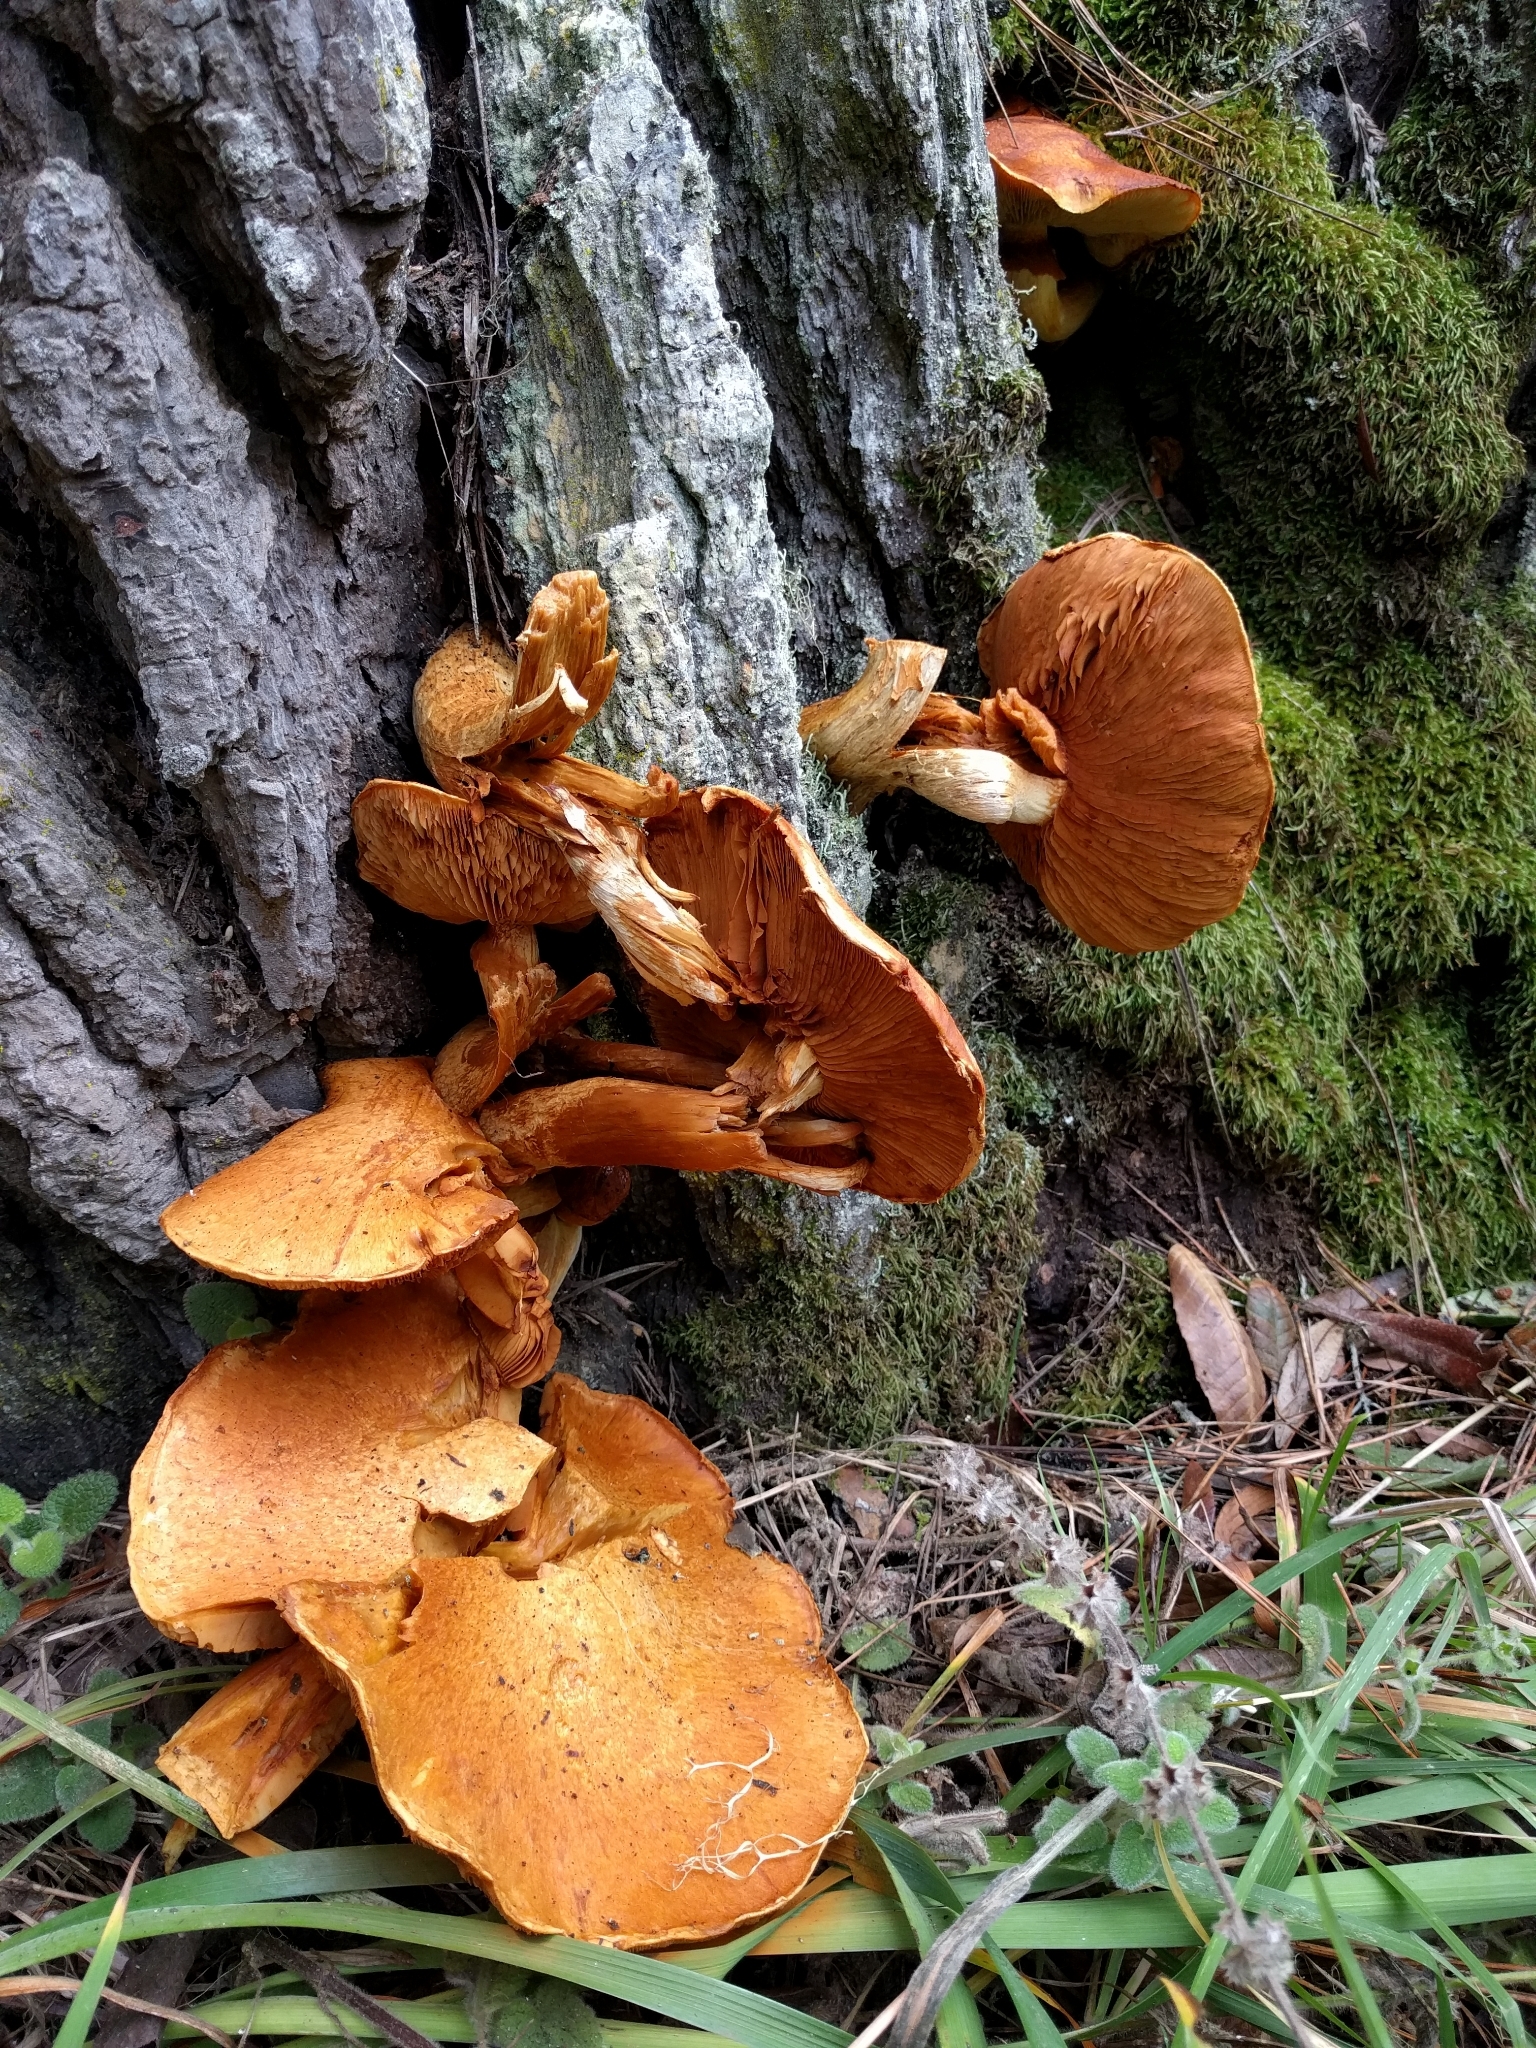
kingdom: Fungi
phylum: Basidiomycota
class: Agaricomycetes
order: Agaricales
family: Hymenogastraceae
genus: Gymnopilus
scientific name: Gymnopilus ventricosus
